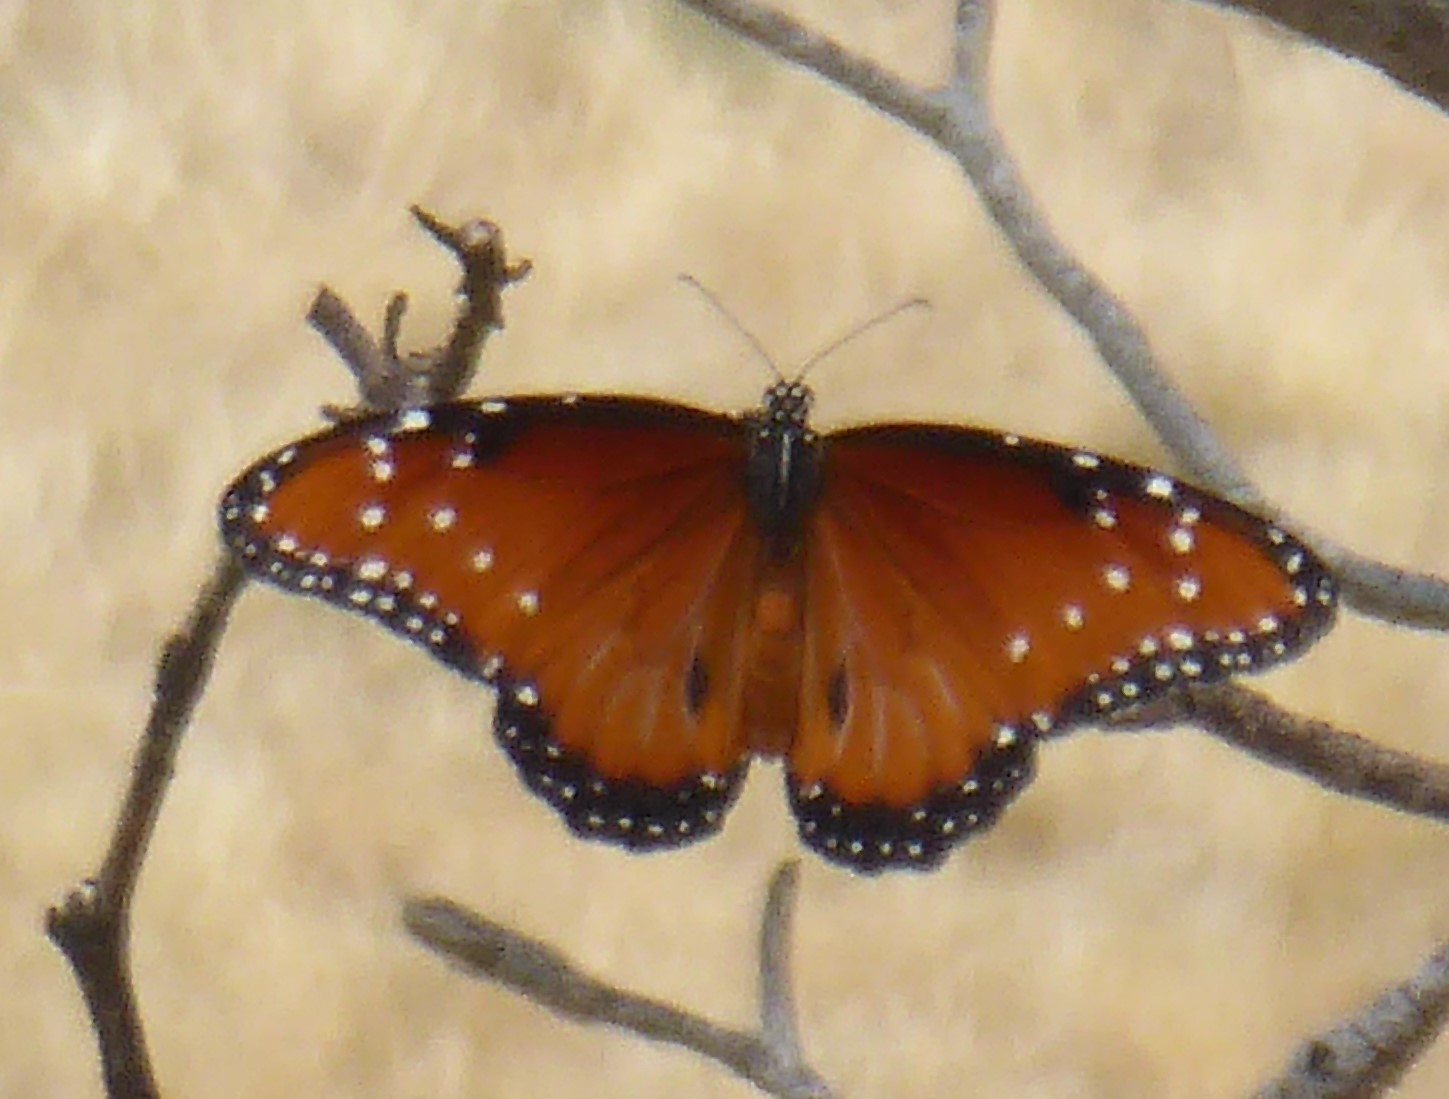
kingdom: Animalia
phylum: Arthropoda
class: Insecta
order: Lepidoptera
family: Nymphalidae
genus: Danaus
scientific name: Danaus gilippus
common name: Queen
